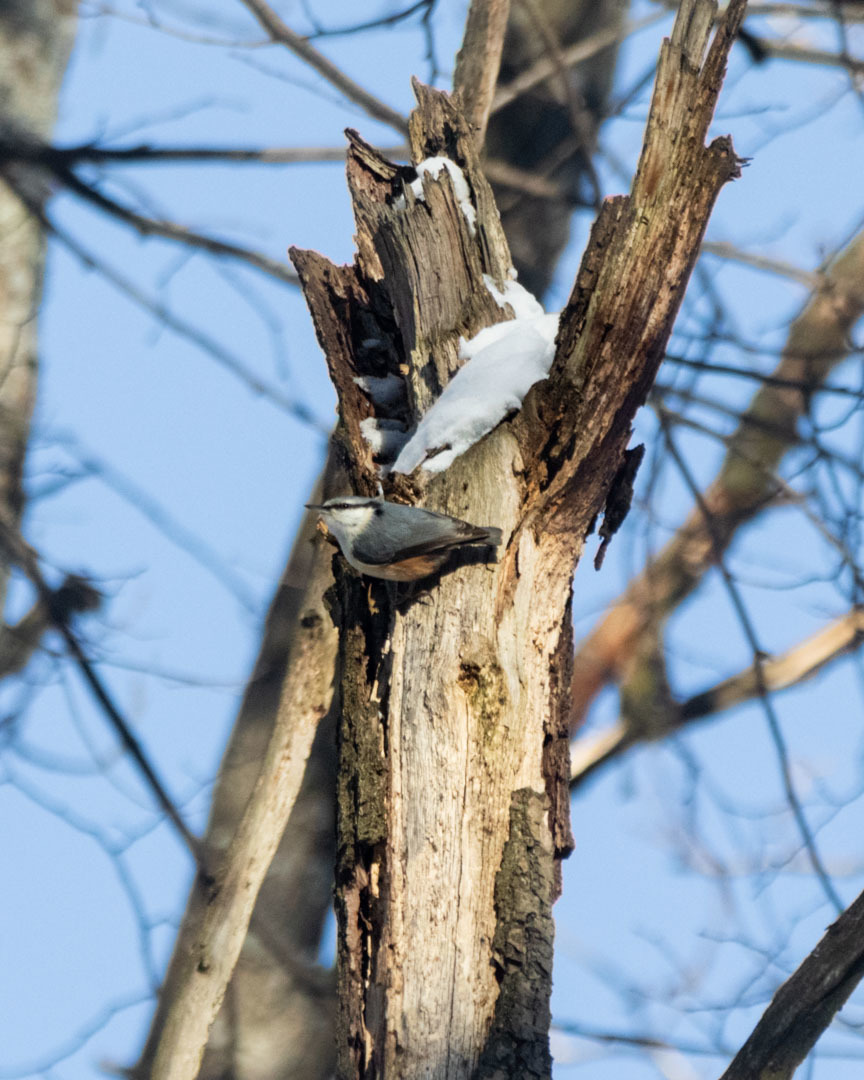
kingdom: Animalia
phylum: Chordata
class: Aves
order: Passeriformes
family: Sittidae
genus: Sitta
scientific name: Sitta europaea
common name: Eurasian nuthatch
